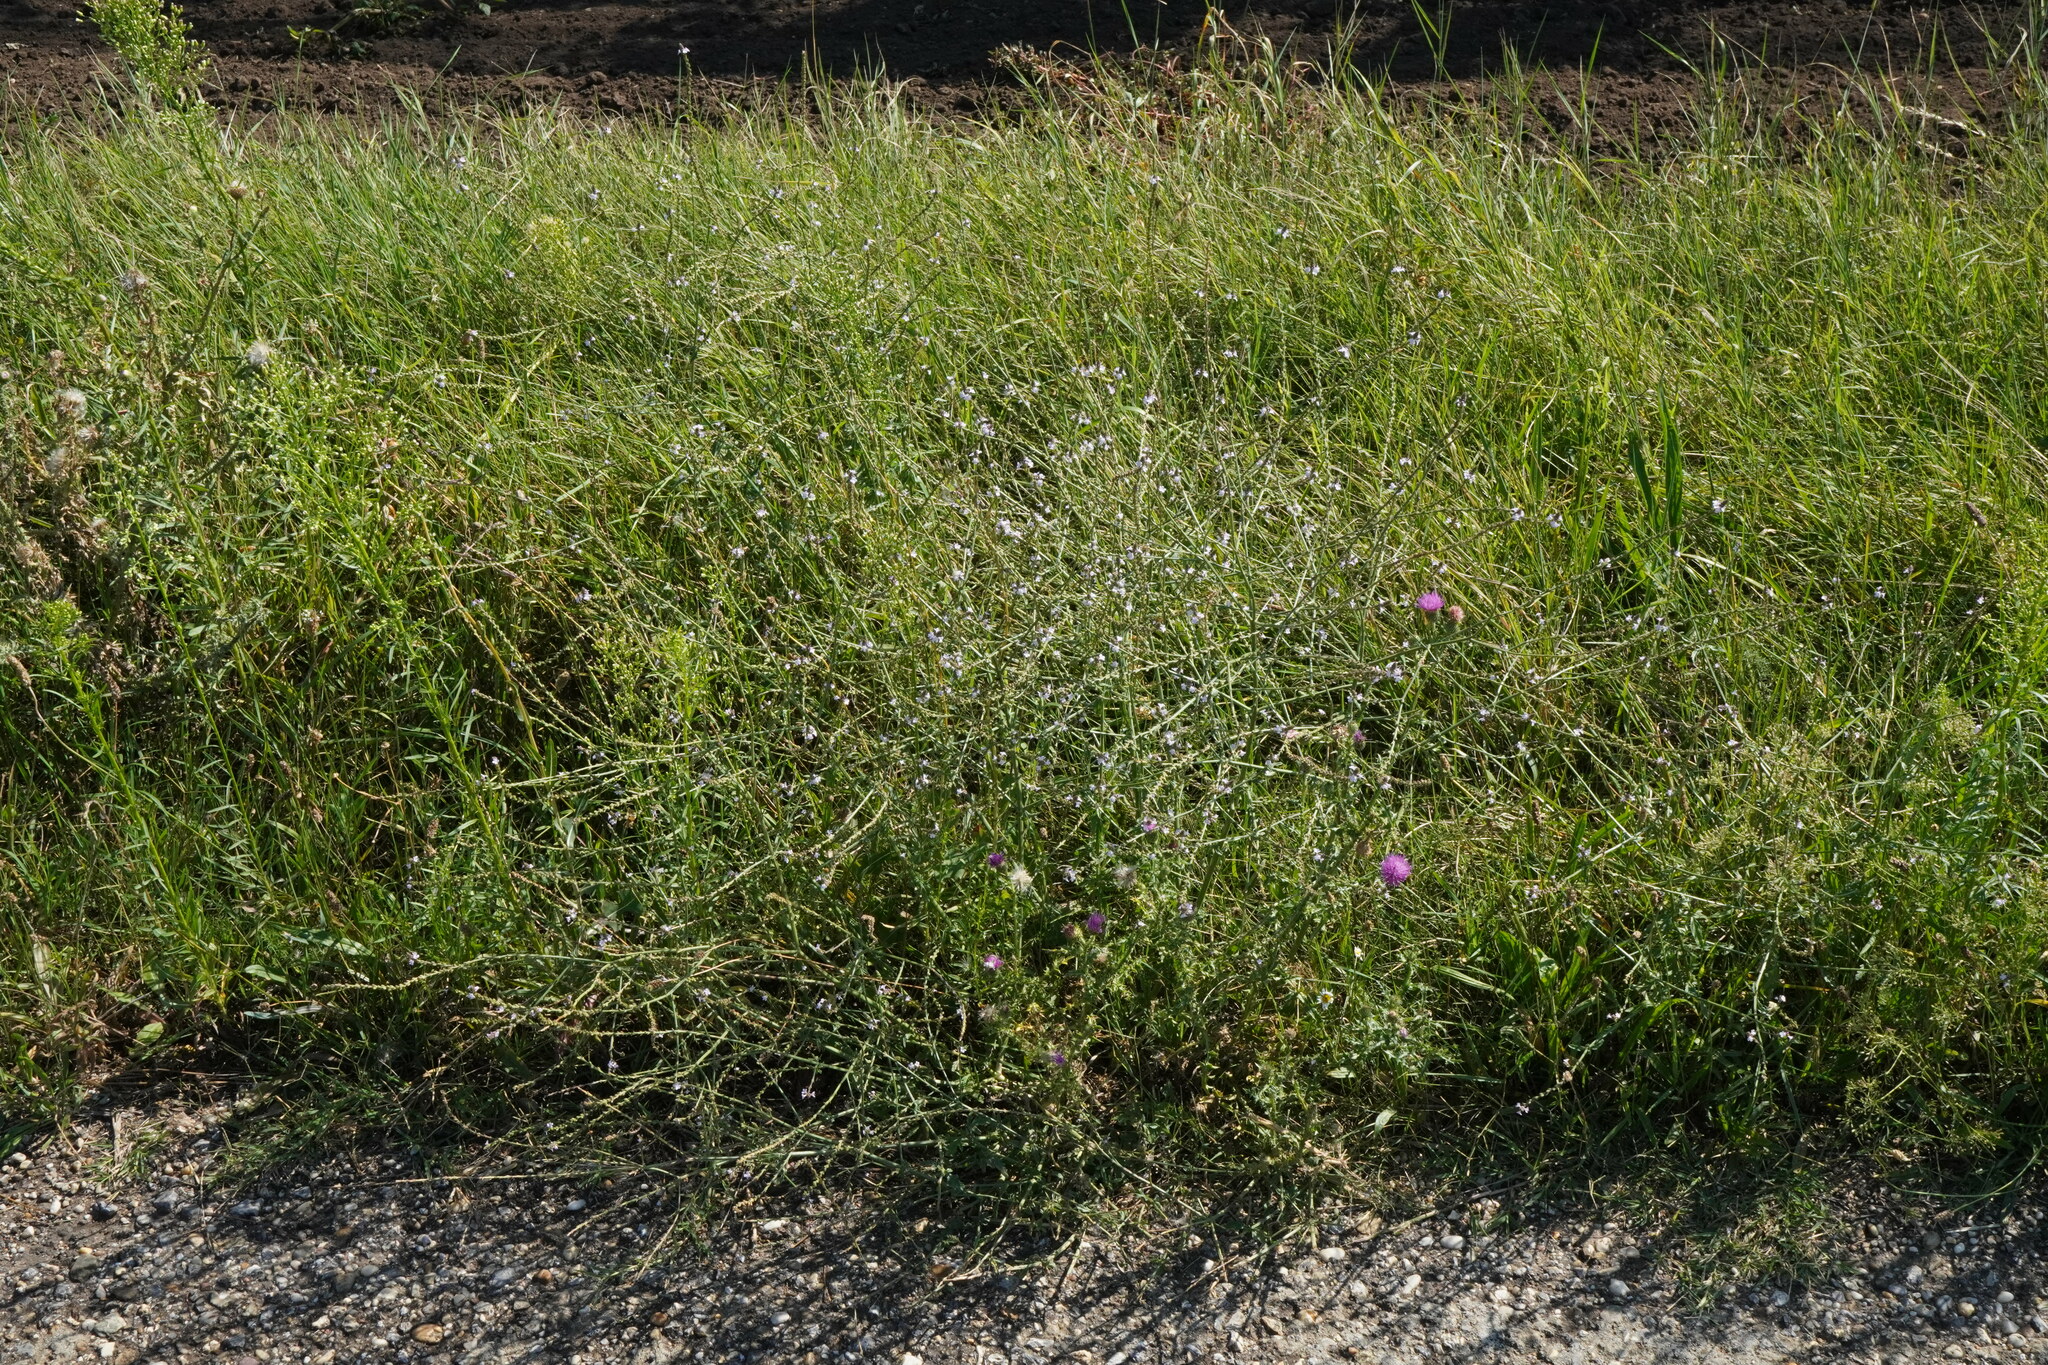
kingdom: Plantae
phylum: Tracheophyta
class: Magnoliopsida
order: Lamiales
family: Verbenaceae
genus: Verbena
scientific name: Verbena officinalis
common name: Vervain
